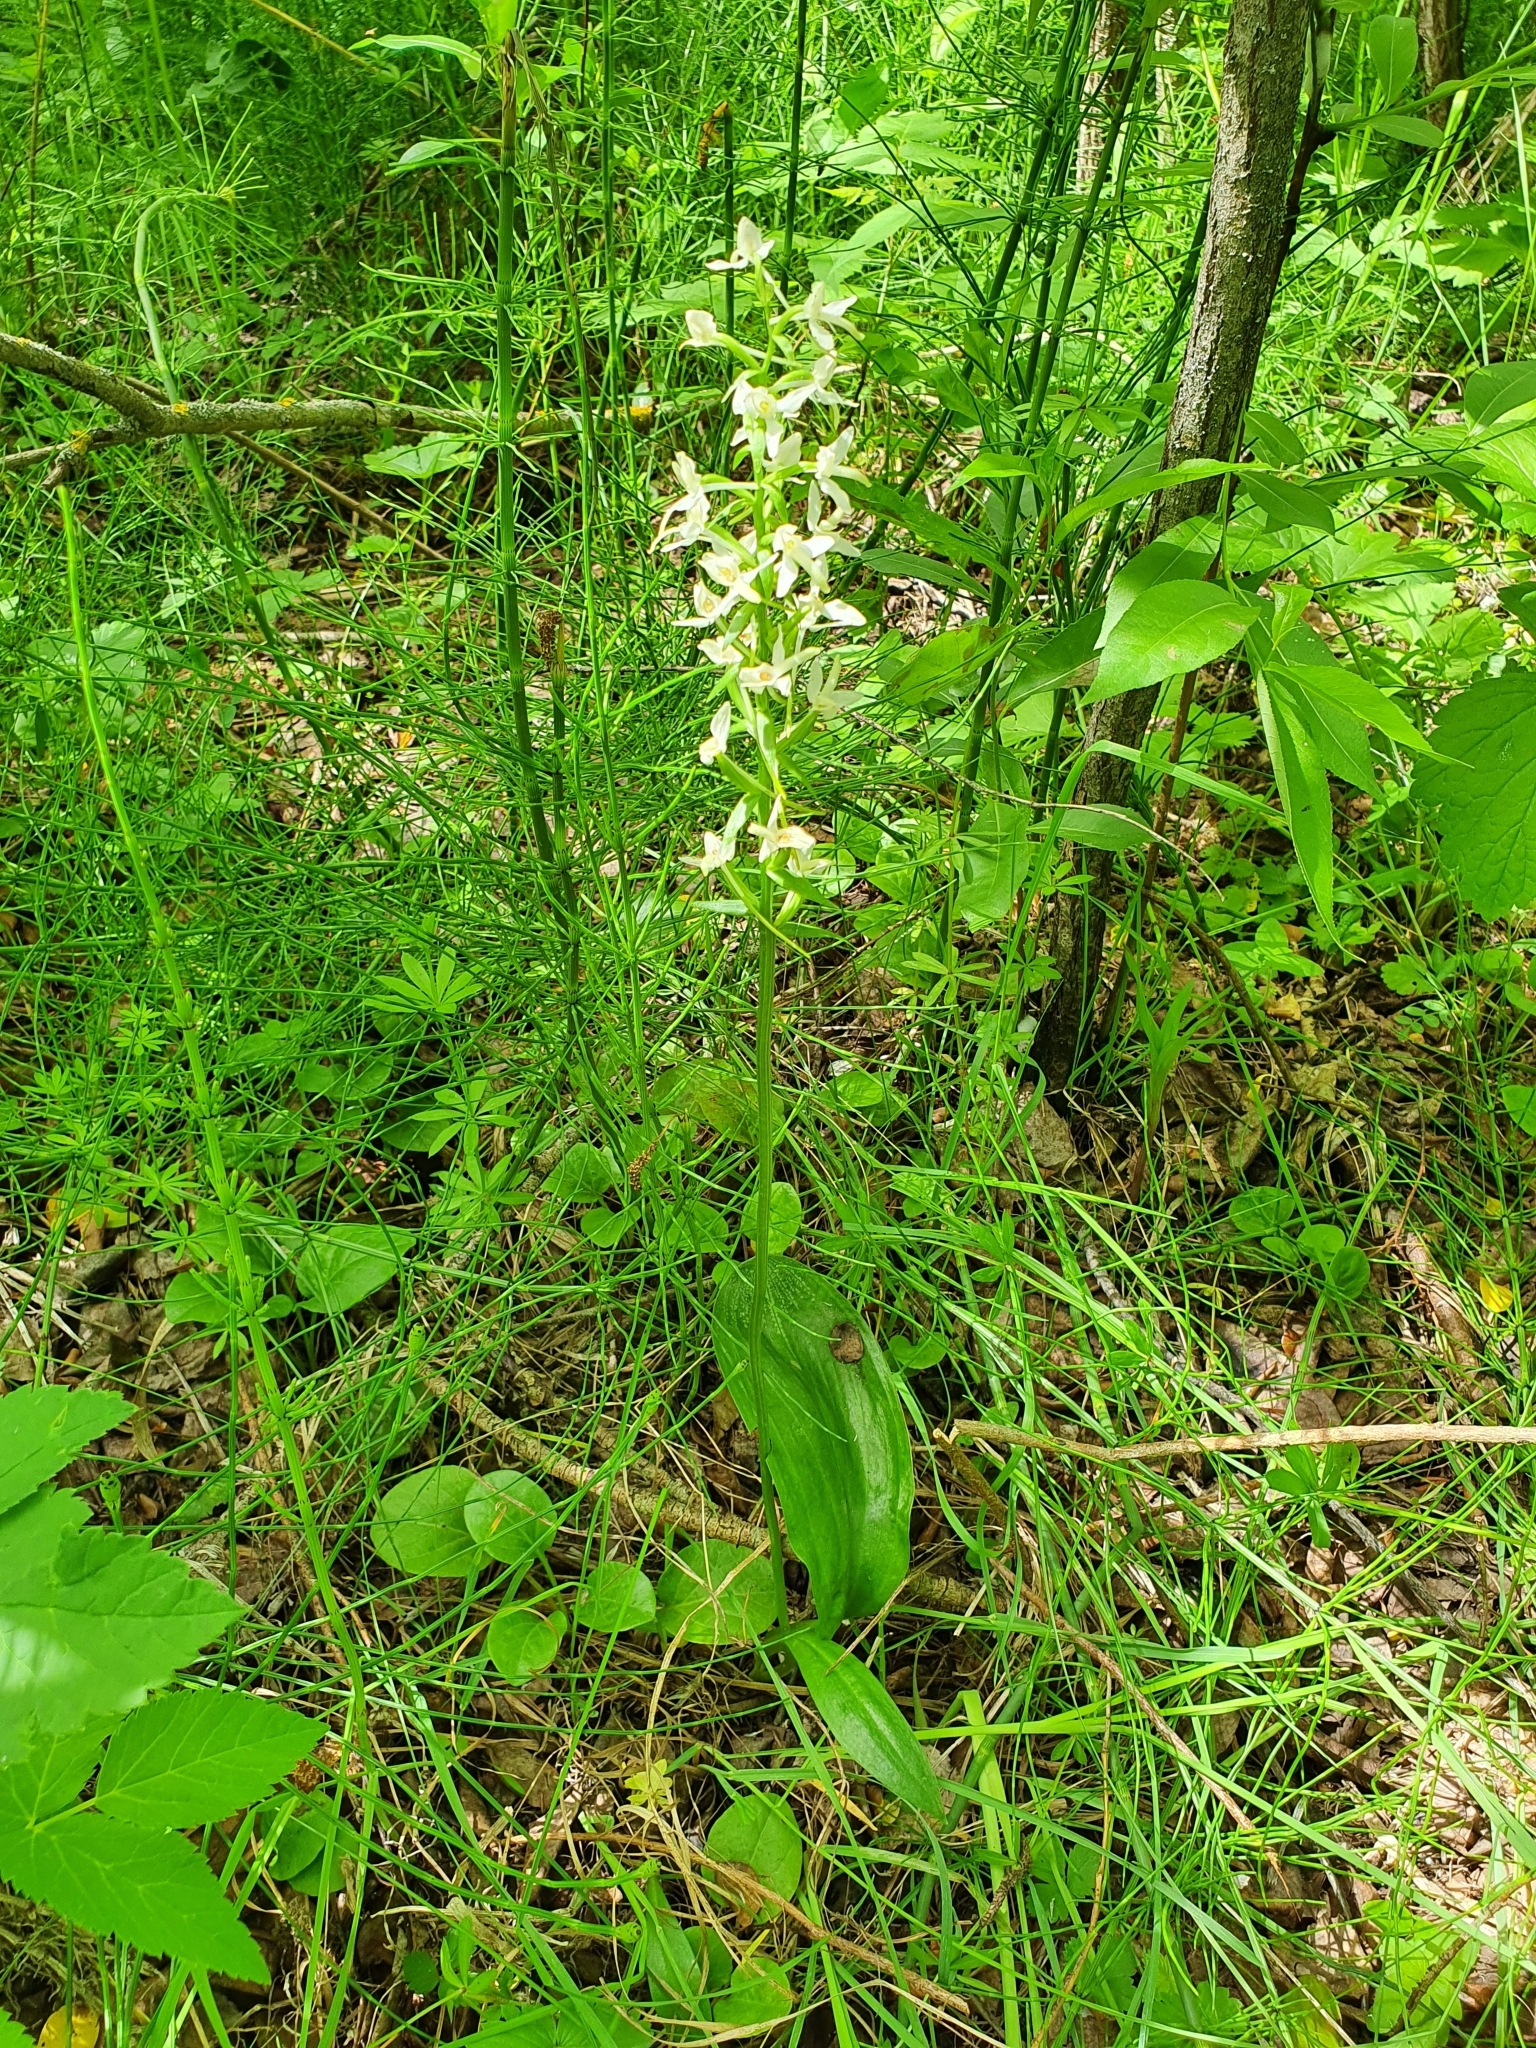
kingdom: Plantae
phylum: Tracheophyta
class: Liliopsida
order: Asparagales
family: Orchidaceae
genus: Platanthera
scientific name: Platanthera bifolia
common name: Lesser butterfly-orchid
